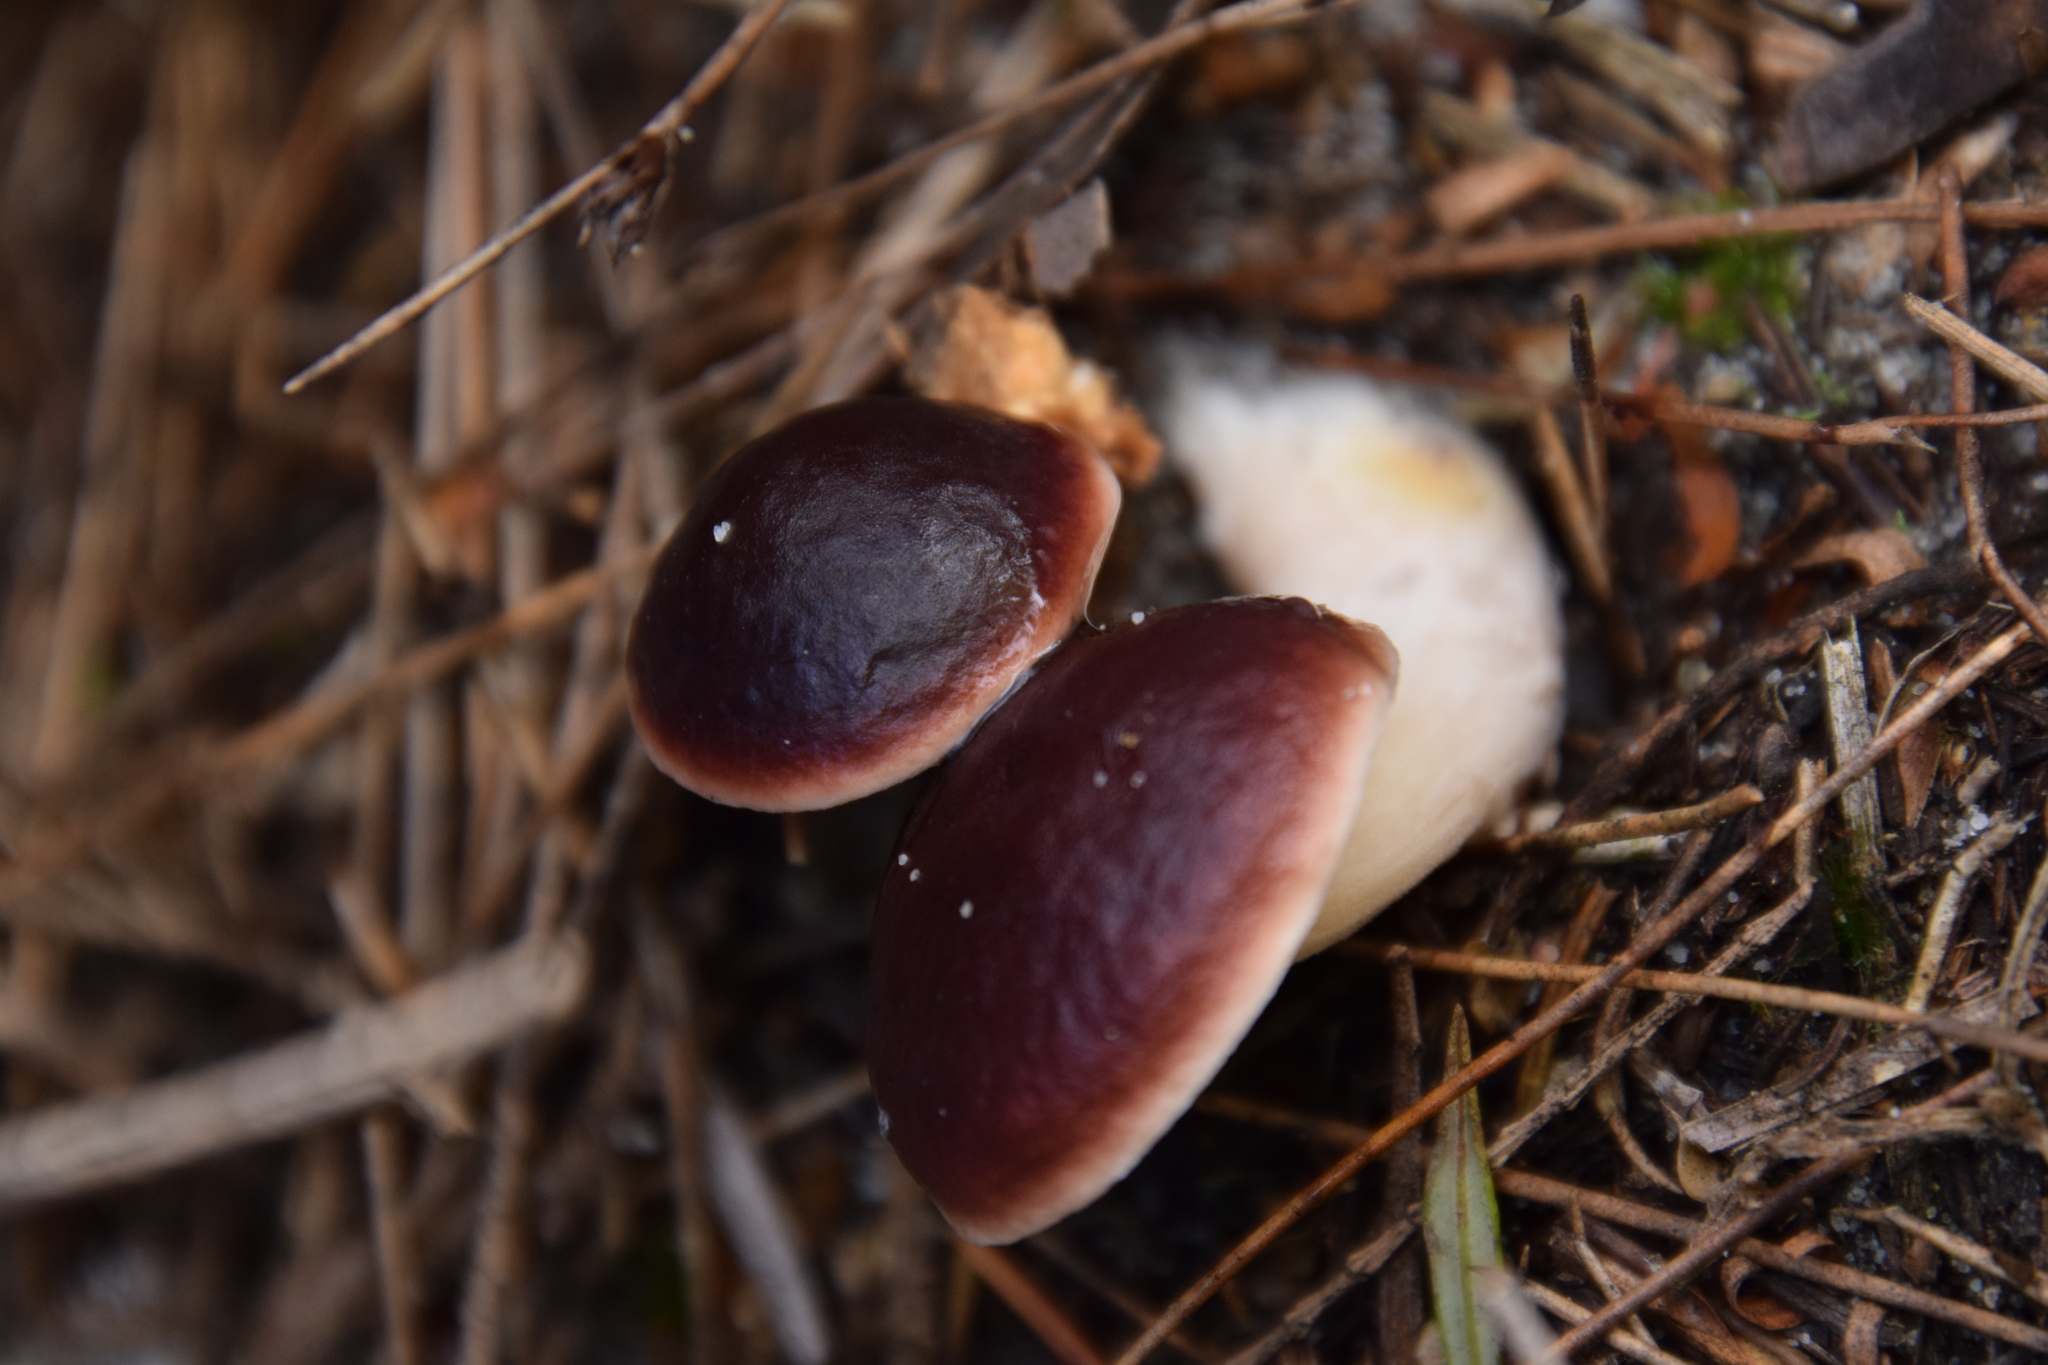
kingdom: Fungi
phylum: Basidiomycota
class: Agaricomycetes
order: Boletales
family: Boletaceae
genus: Fistulinella
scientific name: Fistulinella prunicolor
